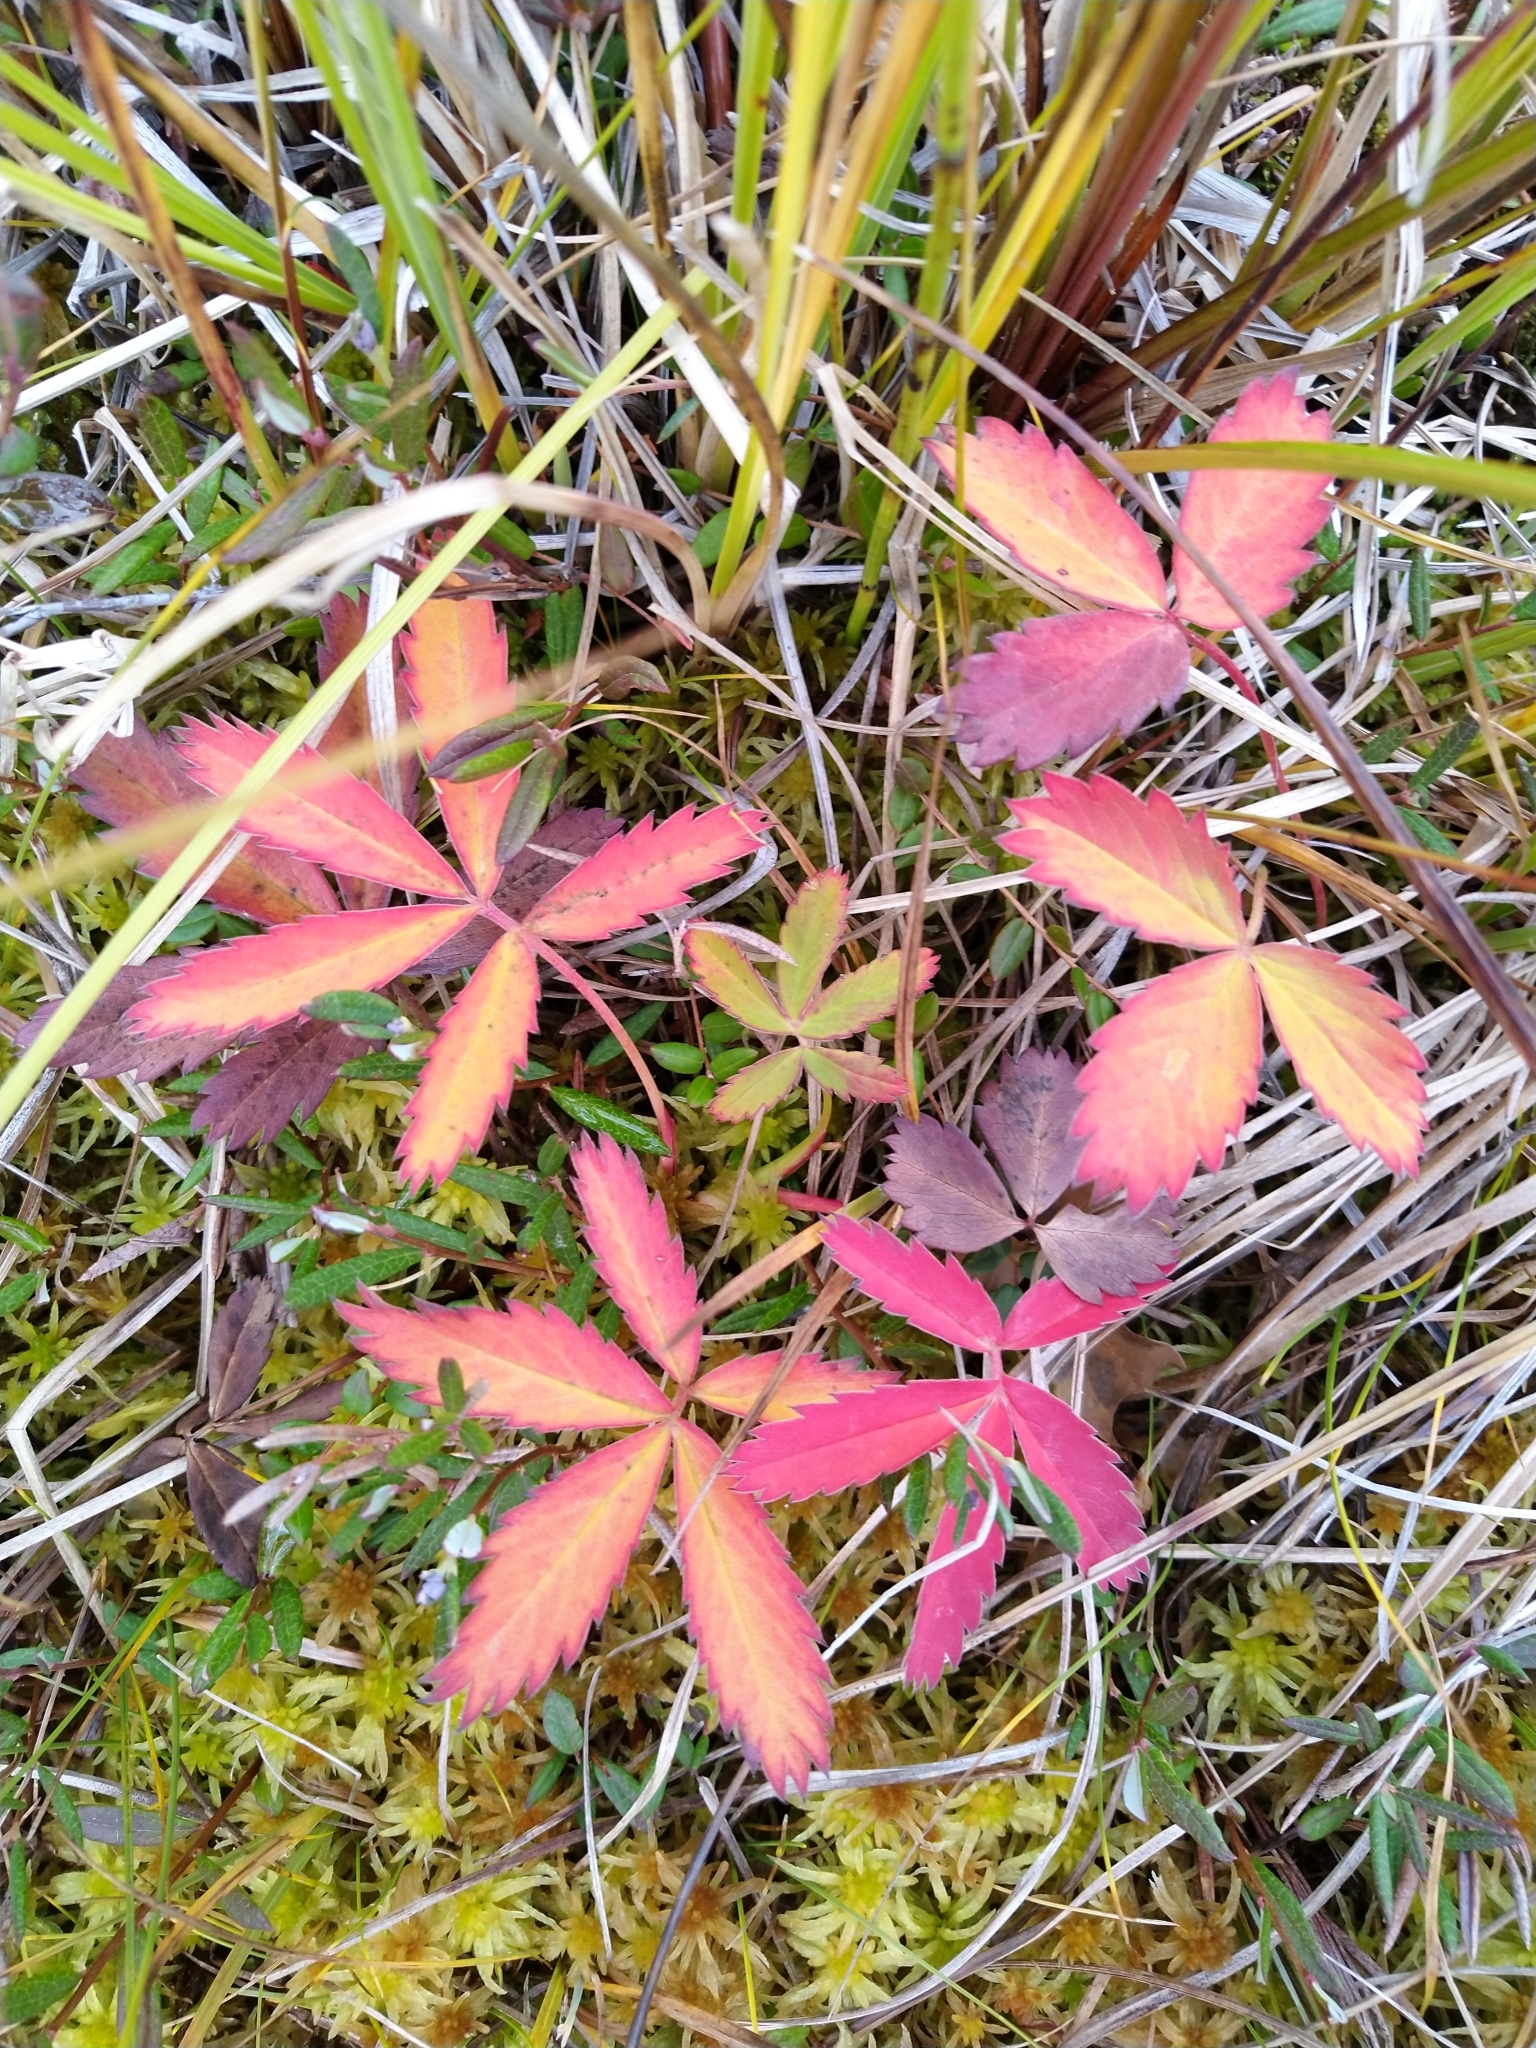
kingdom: Plantae
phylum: Tracheophyta
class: Magnoliopsida
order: Rosales
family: Rosaceae
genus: Comarum
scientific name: Comarum palustre
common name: Marsh cinquefoil
